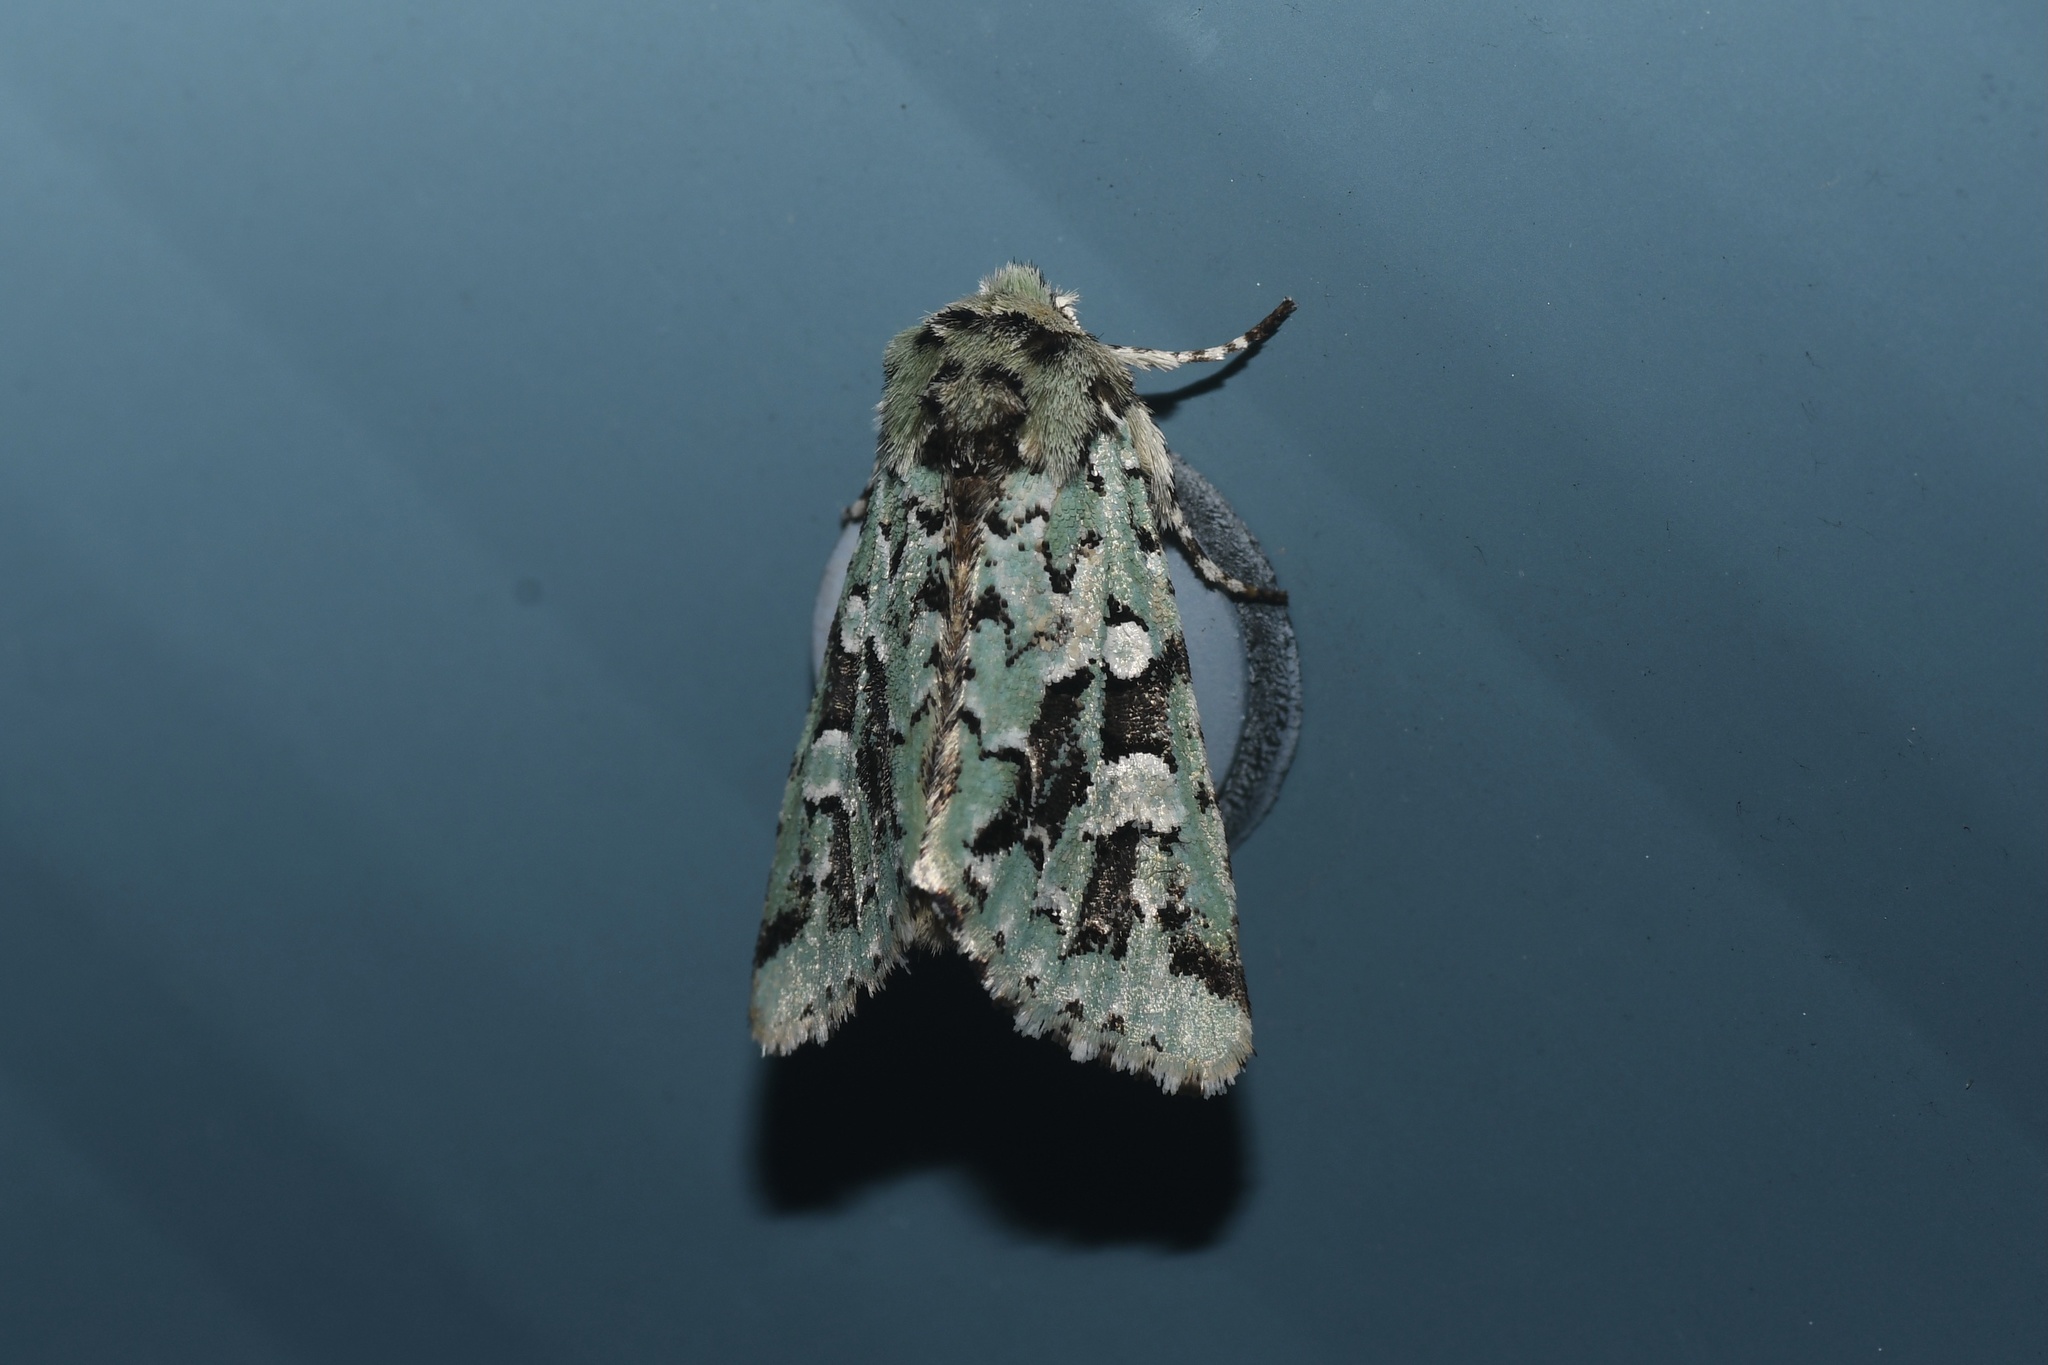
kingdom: Animalia
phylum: Arthropoda
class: Insecta
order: Lepidoptera
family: Noctuidae
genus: Feralia
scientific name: Feralia comstocki
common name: Comstock's sallow
